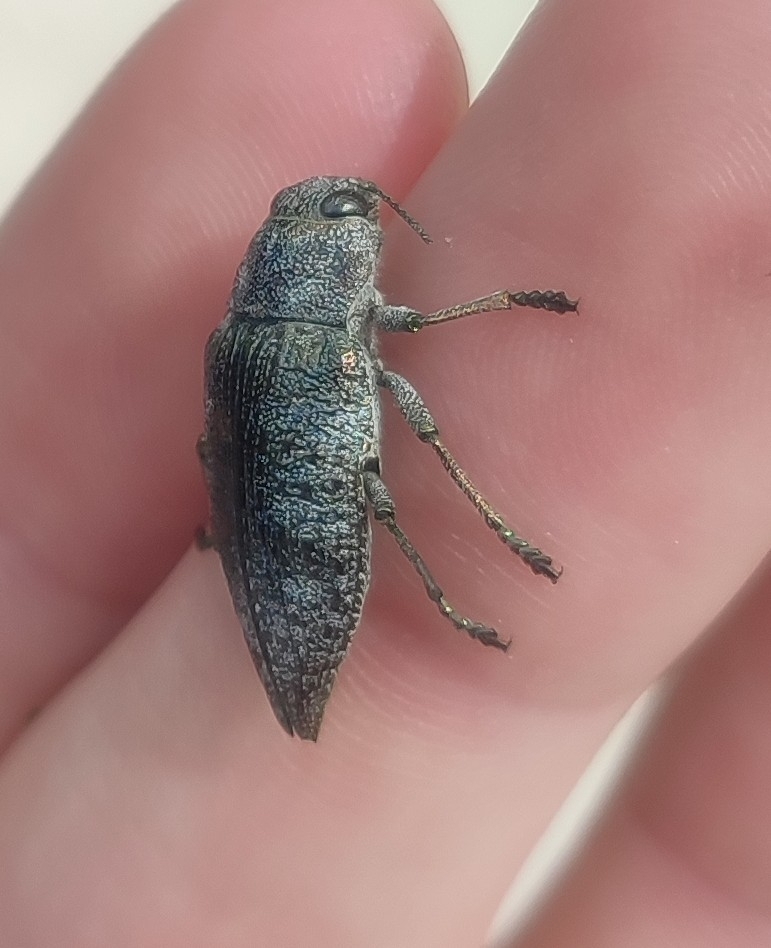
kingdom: Animalia
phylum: Arthropoda
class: Insecta
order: Coleoptera
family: Buprestidae
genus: Dicerca
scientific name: Dicerca aenea
